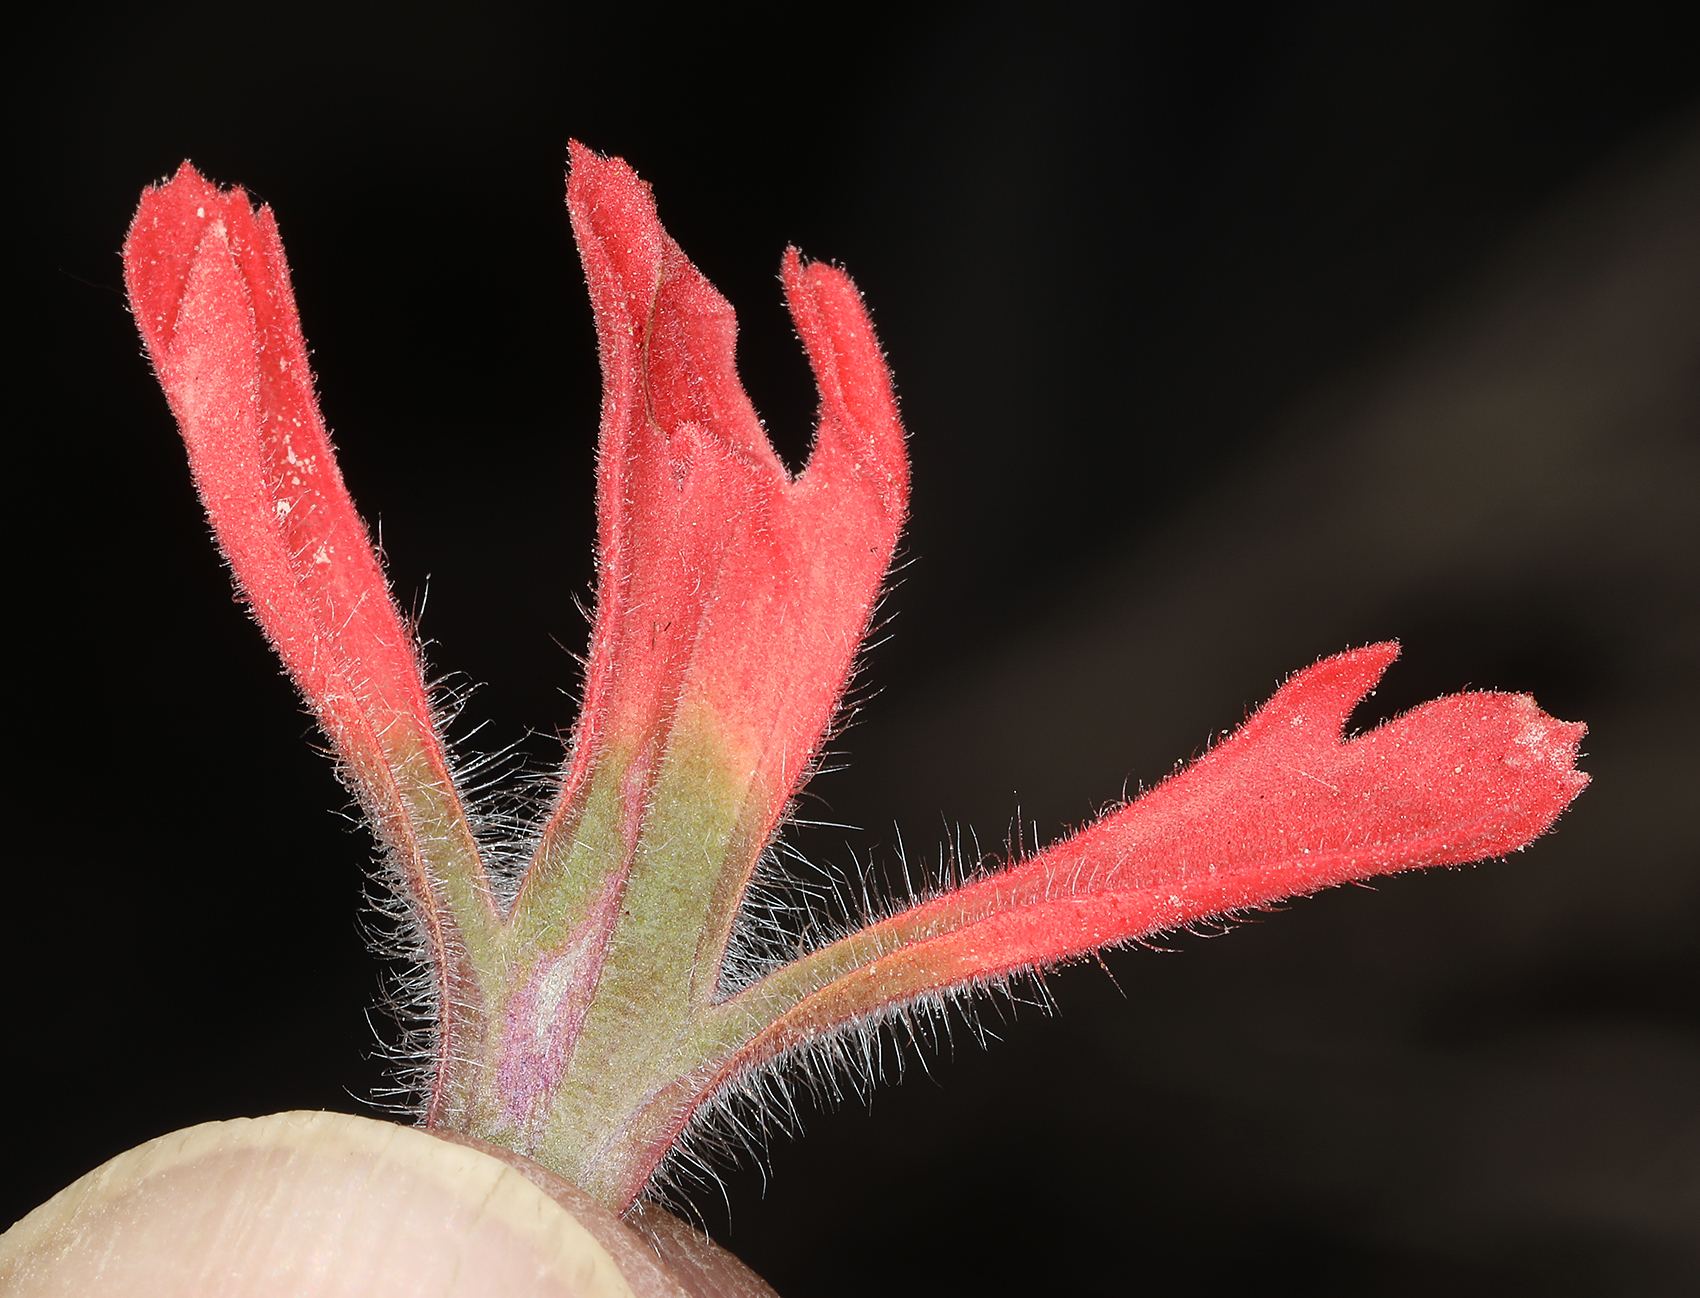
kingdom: Plantae
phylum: Tracheophyta
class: Magnoliopsida
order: Lamiales
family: Orobanchaceae
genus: Castilleja
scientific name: Castilleja chromosa
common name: Desert paintbrush
